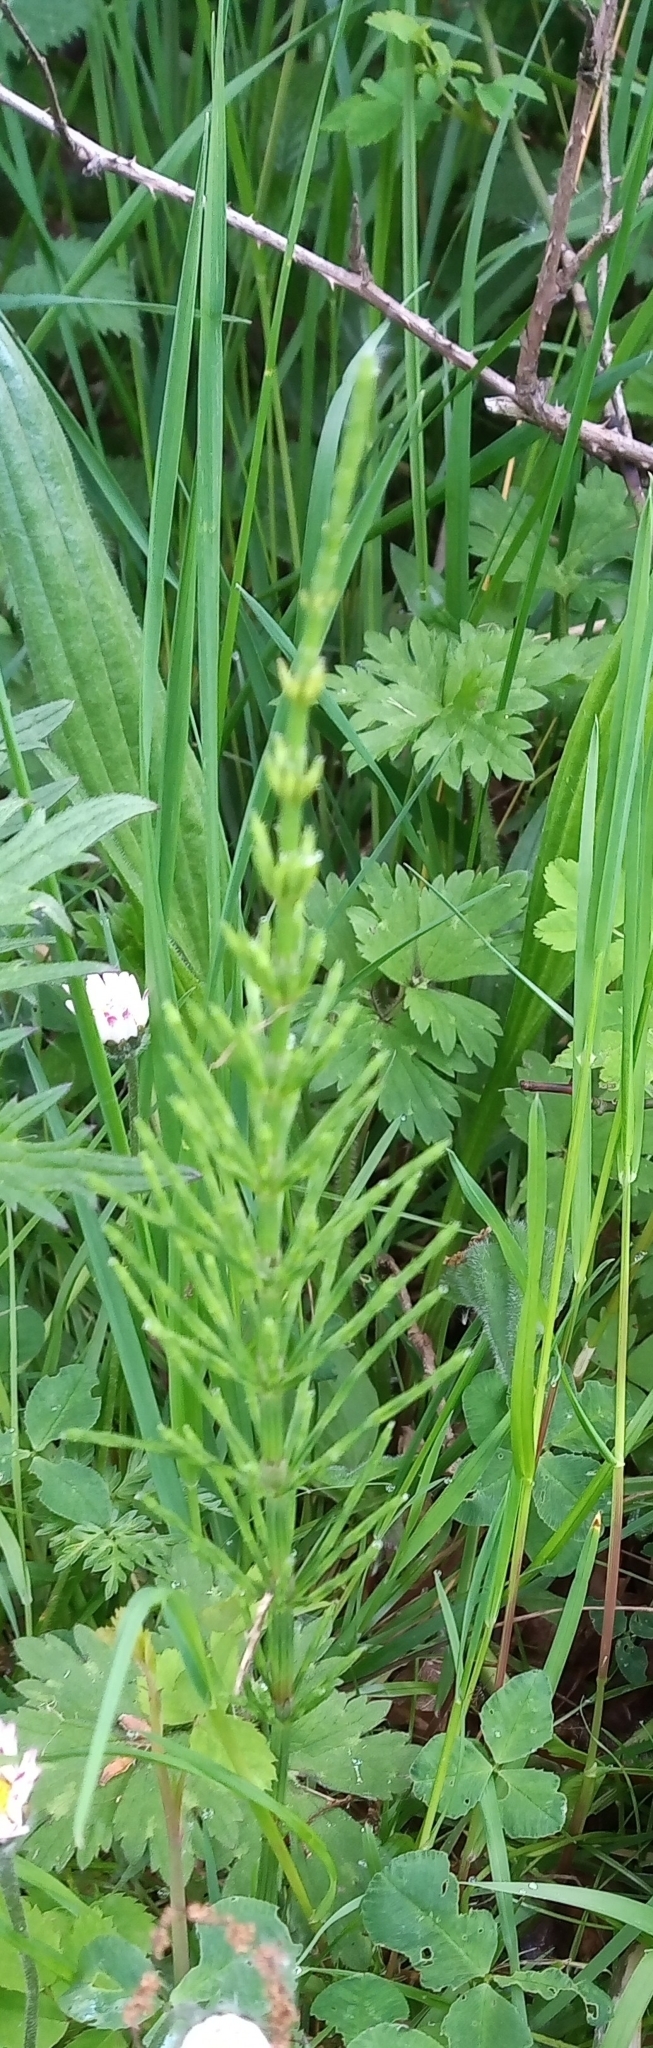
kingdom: Plantae
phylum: Tracheophyta
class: Polypodiopsida
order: Equisetales
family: Equisetaceae
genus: Equisetum
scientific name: Equisetum arvense
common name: Field horsetail
